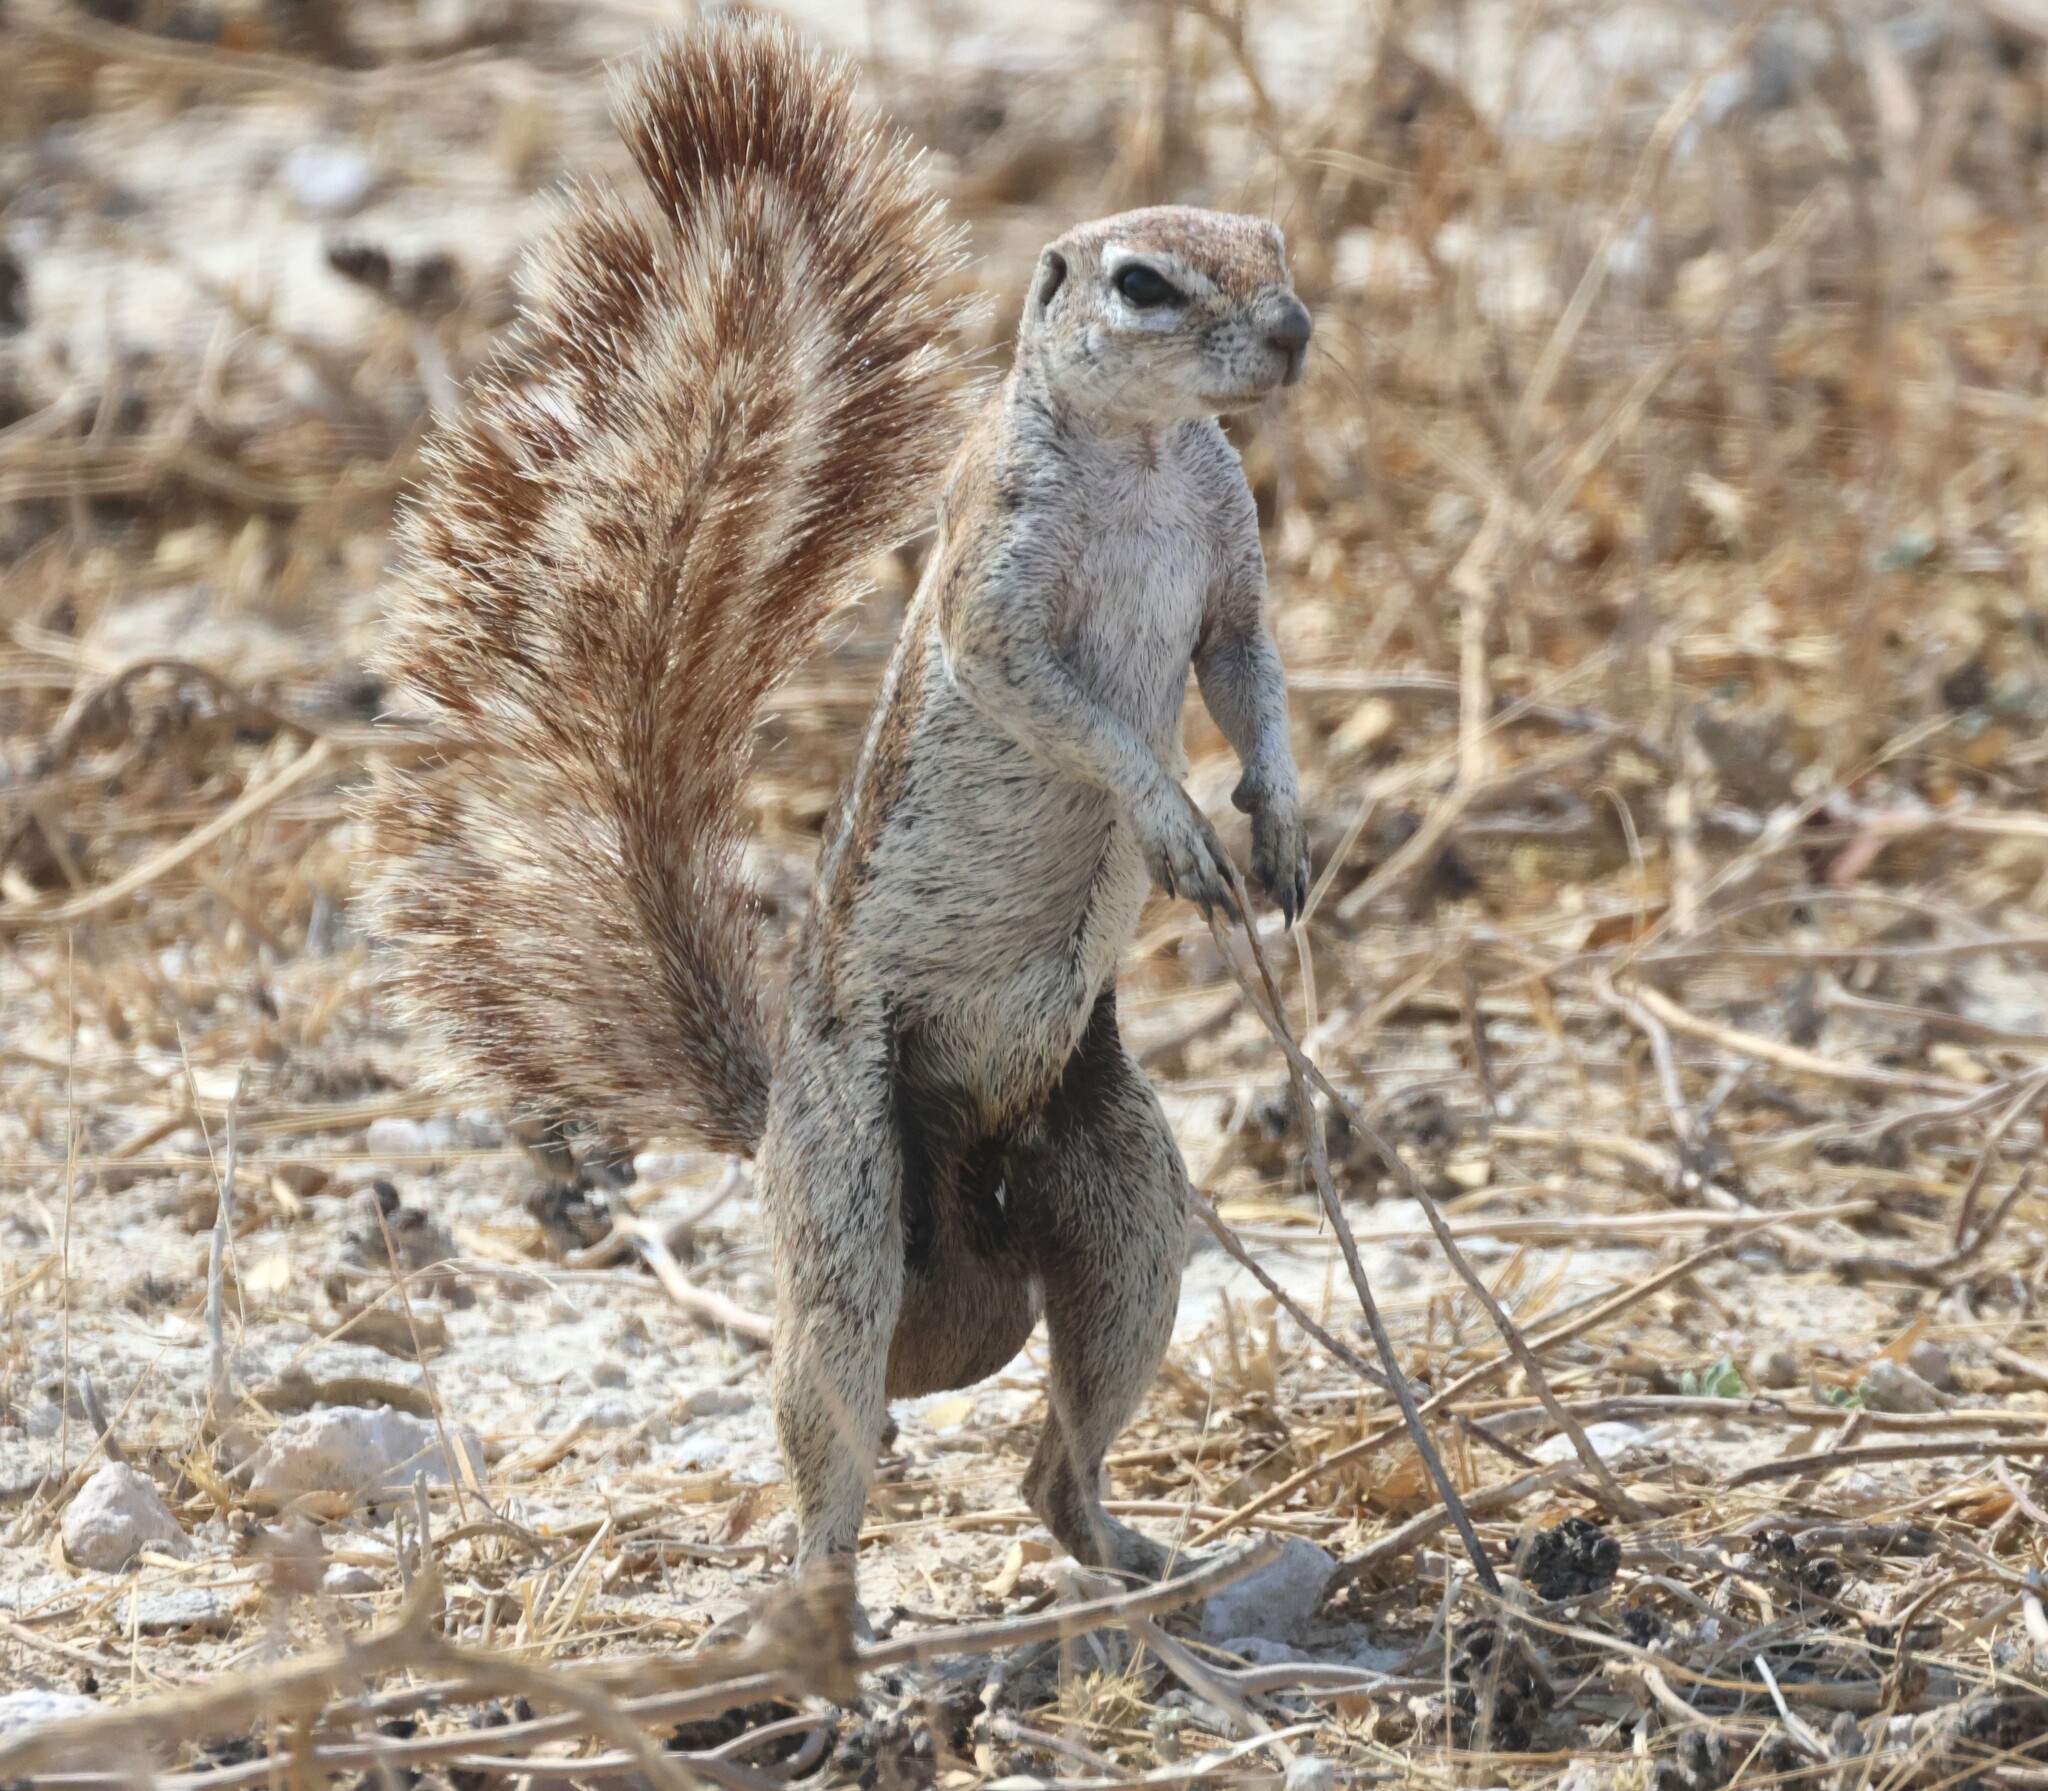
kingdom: Animalia
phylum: Chordata
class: Mammalia
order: Rodentia
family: Sciuridae
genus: Xerus
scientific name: Xerus inauris
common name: South african ground squirrel
